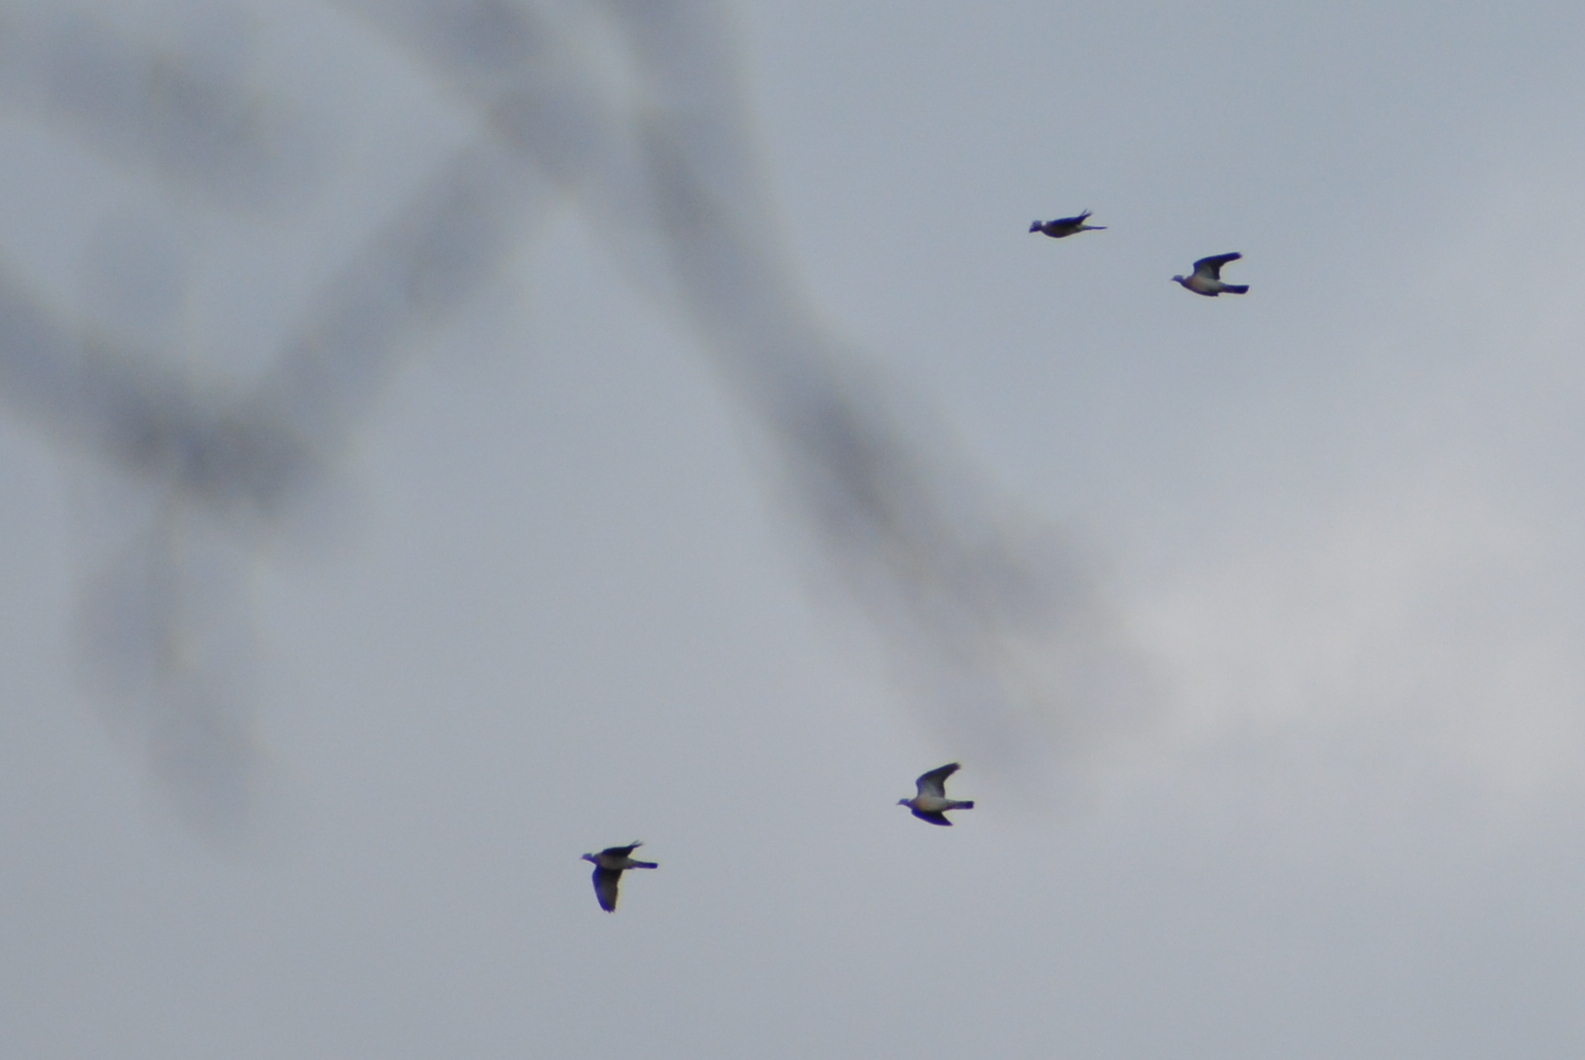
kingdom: Animalia
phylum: Chordata
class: Aves
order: Columbiformes
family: Columbidae
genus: Columba
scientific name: Columba palumbus
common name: Common wood pigeon
